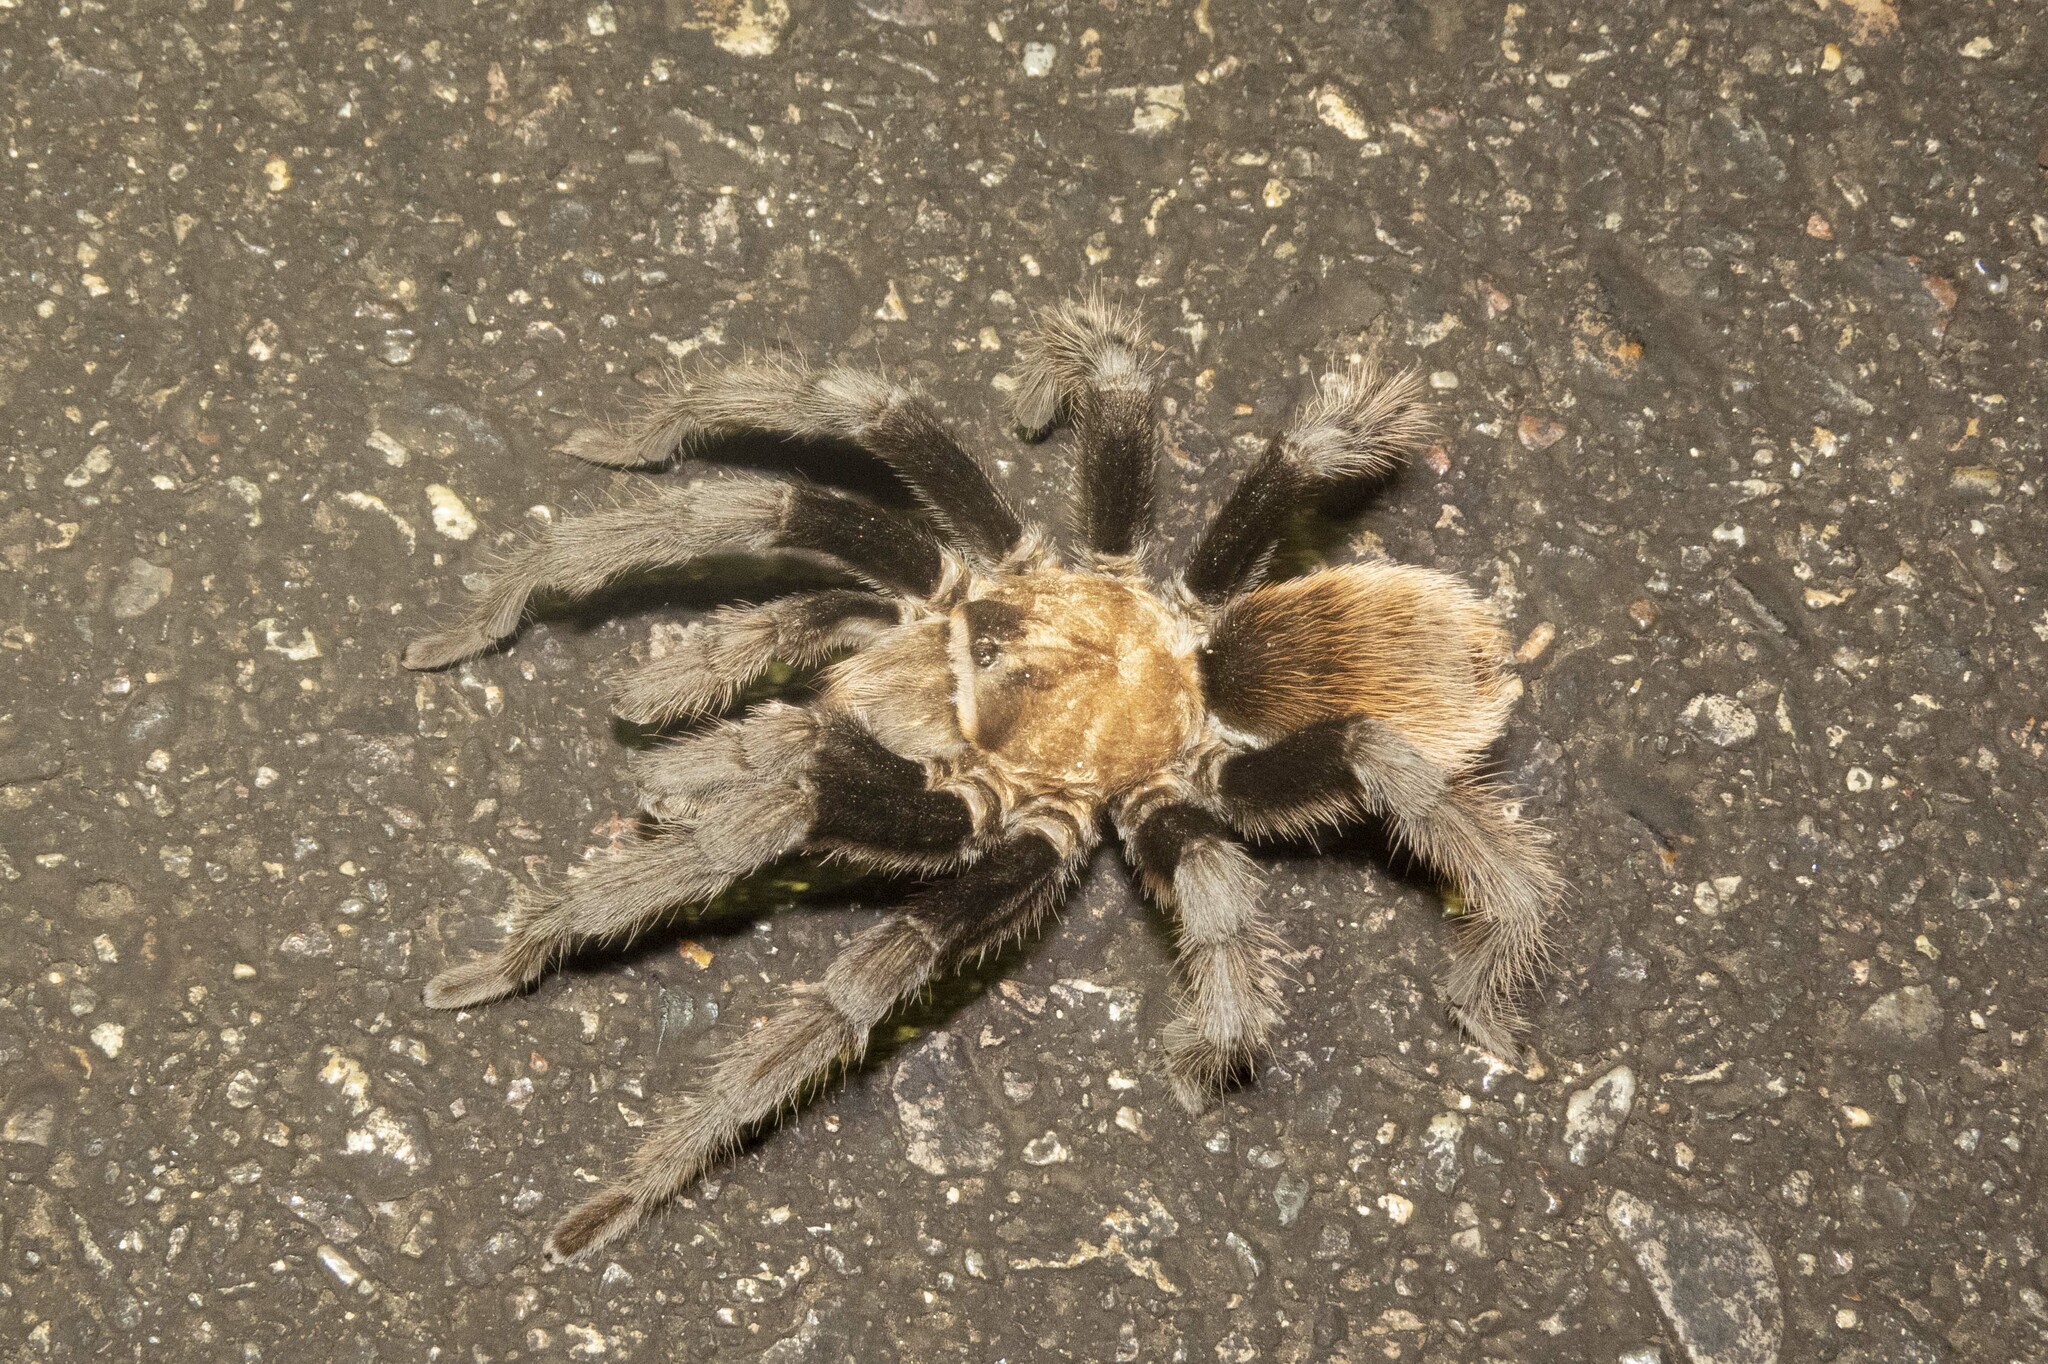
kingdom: Animalia
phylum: Arthropoda
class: Arachnida
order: Araneae
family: Theraphosidae
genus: Aphonopelma
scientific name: Aphonopelma chalcodes
